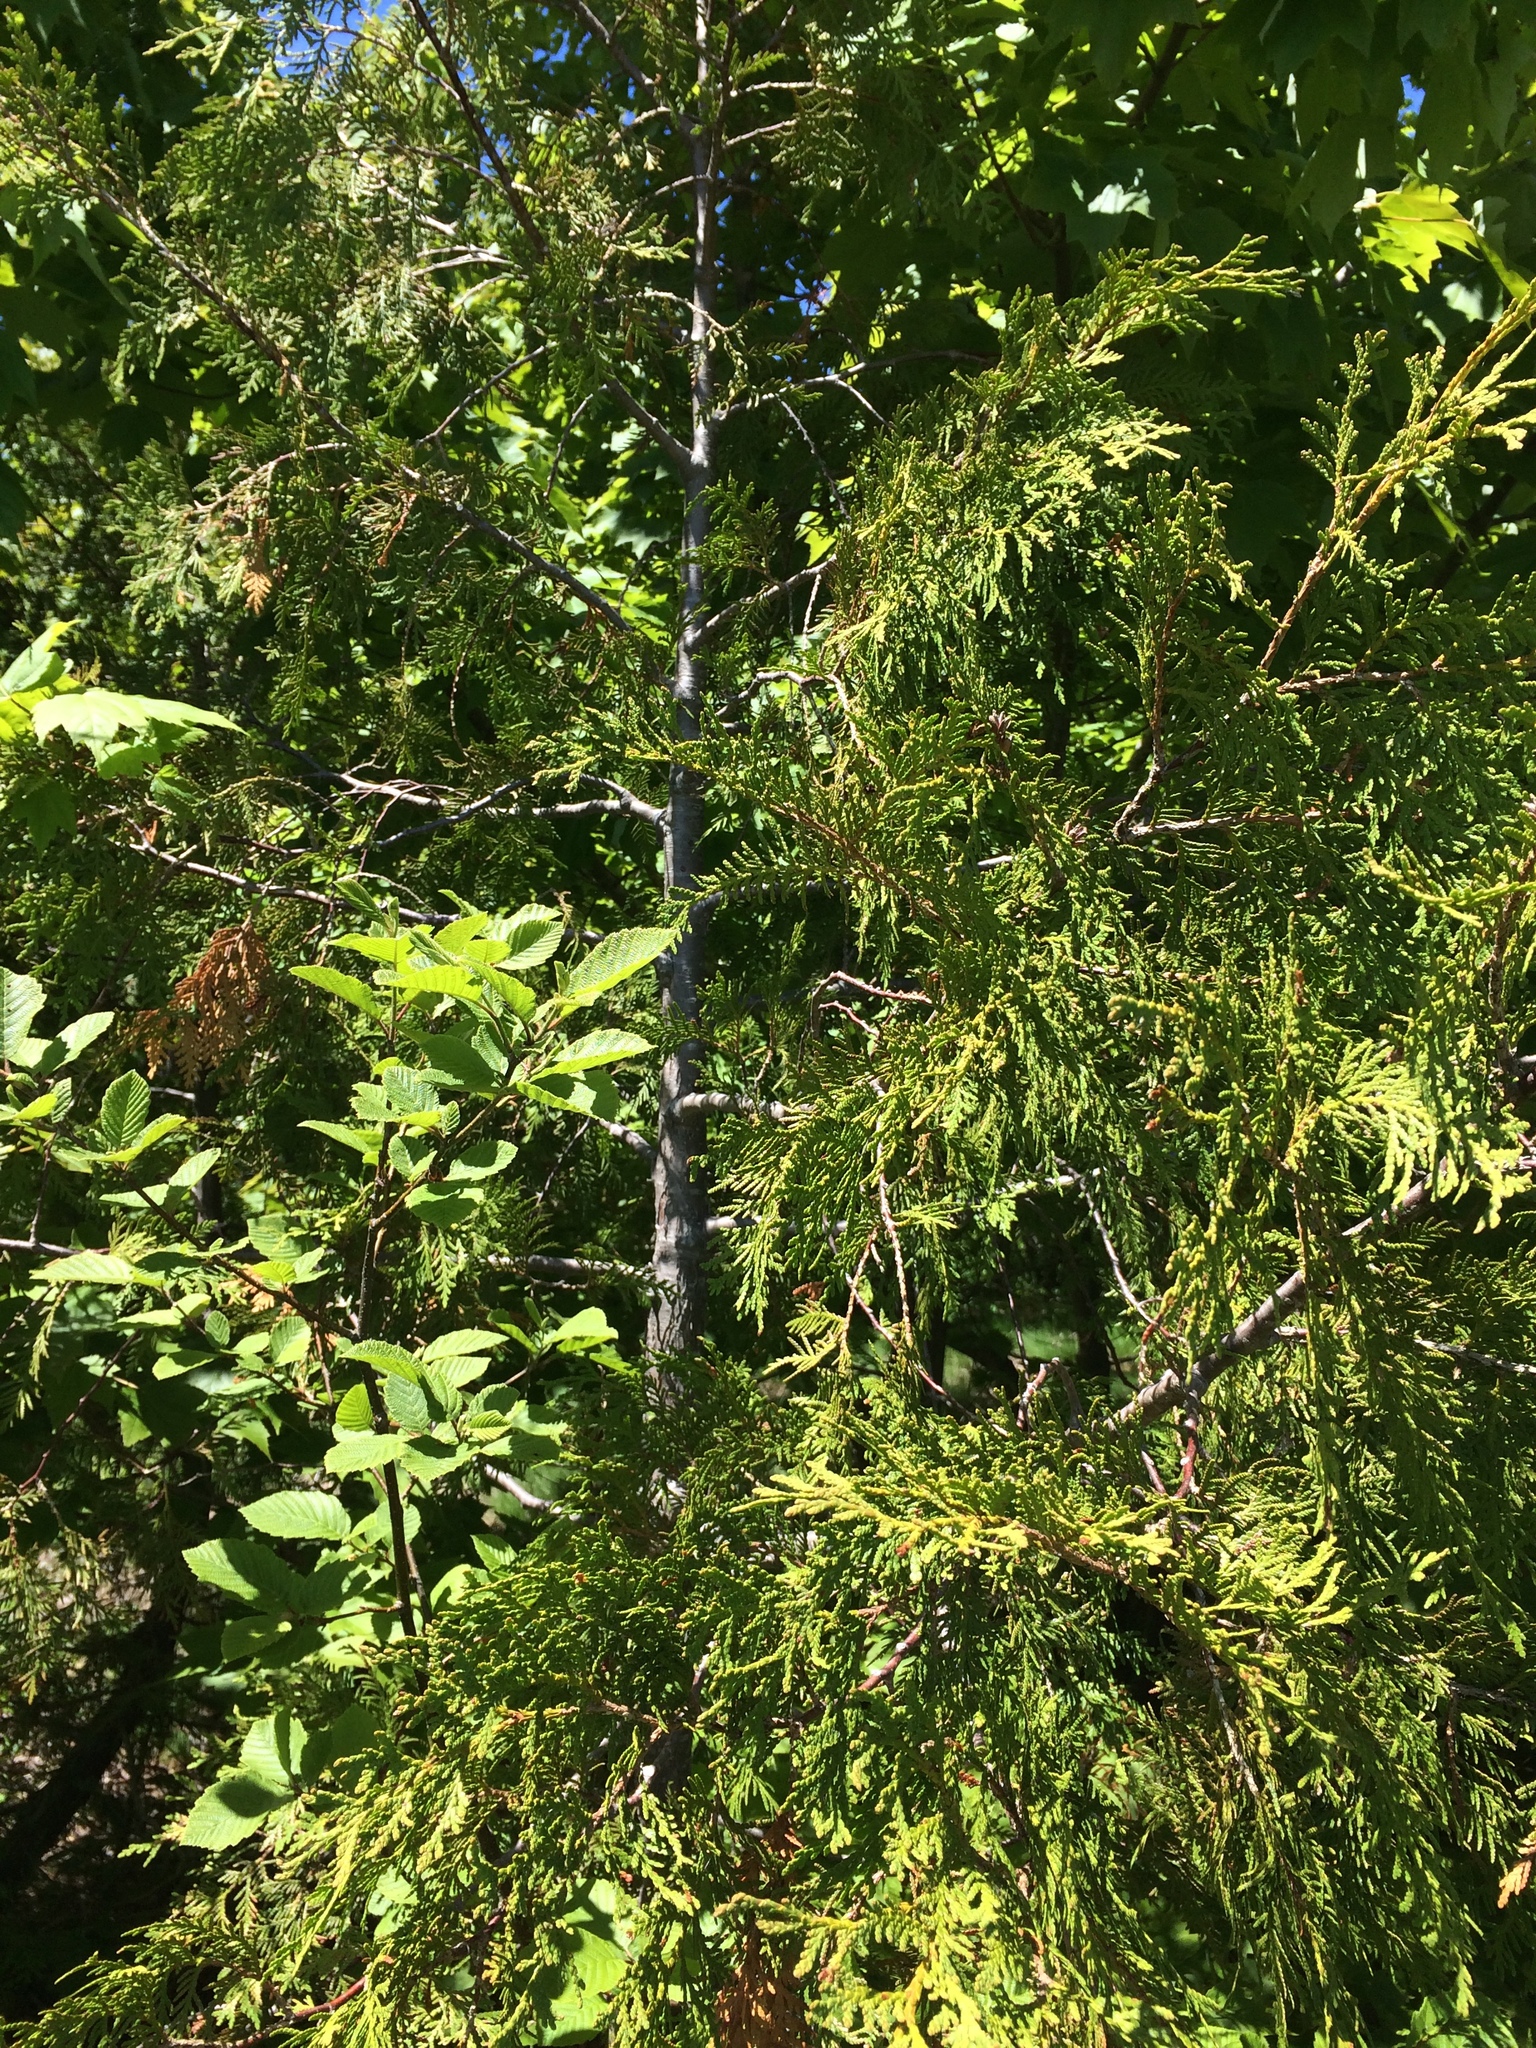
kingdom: Plantae
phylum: Tracheophyta
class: Pinopsida
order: Pinales
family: Cupressaceae
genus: Thuja
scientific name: Thuja occidentalis
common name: Northern white-cedar
